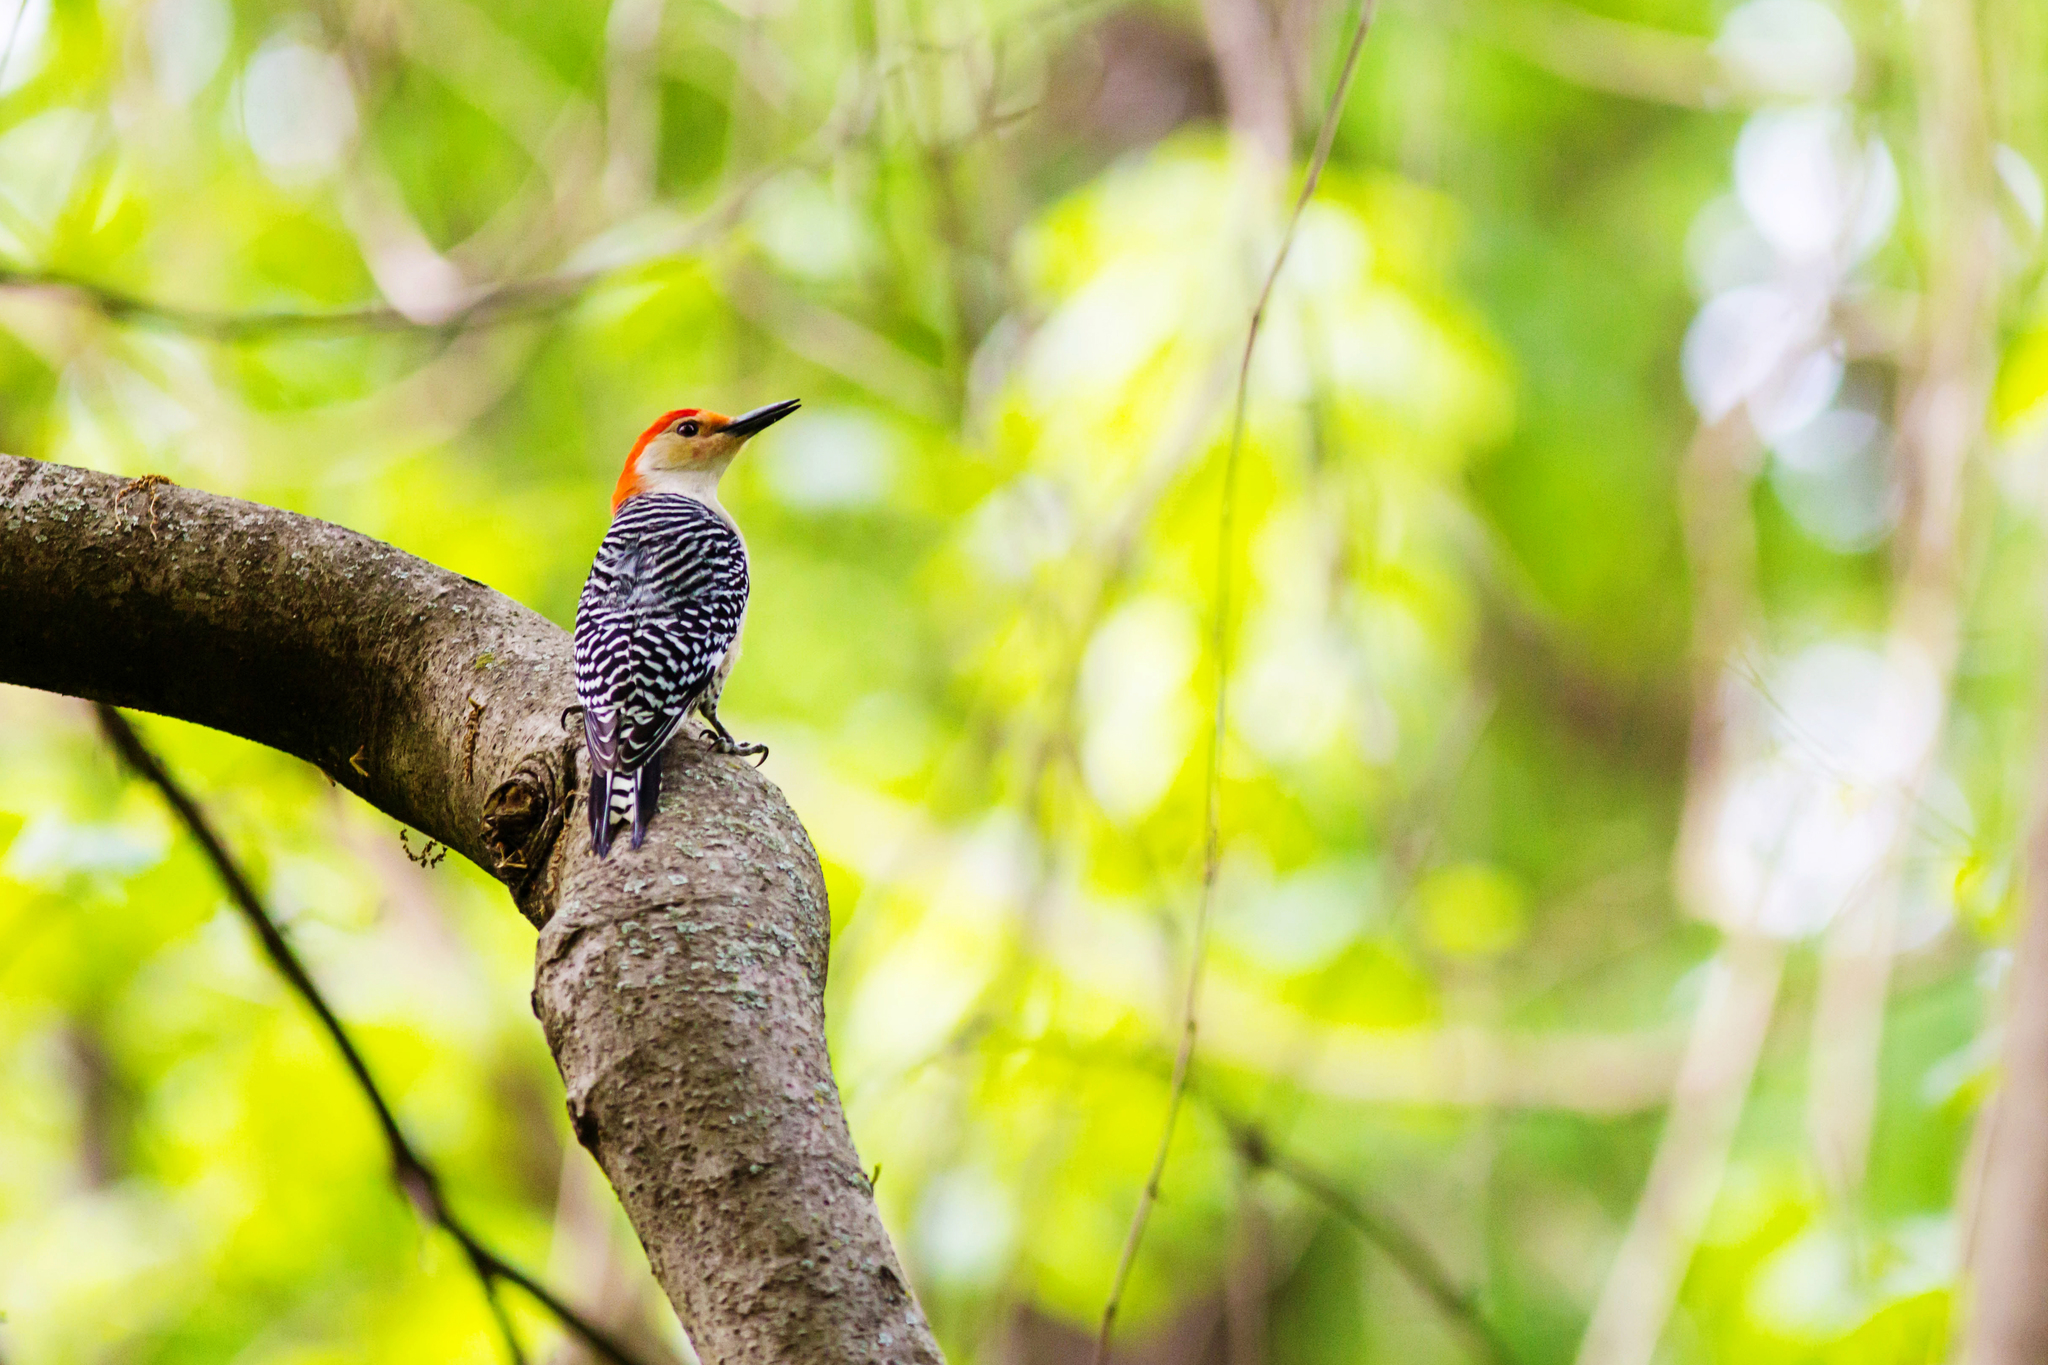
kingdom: Animalia
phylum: Chordata
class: Aves
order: Piciformes
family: Picidae
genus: Melanerpes
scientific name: Melanerpes carolinus
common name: Red-bellied woodpecker
